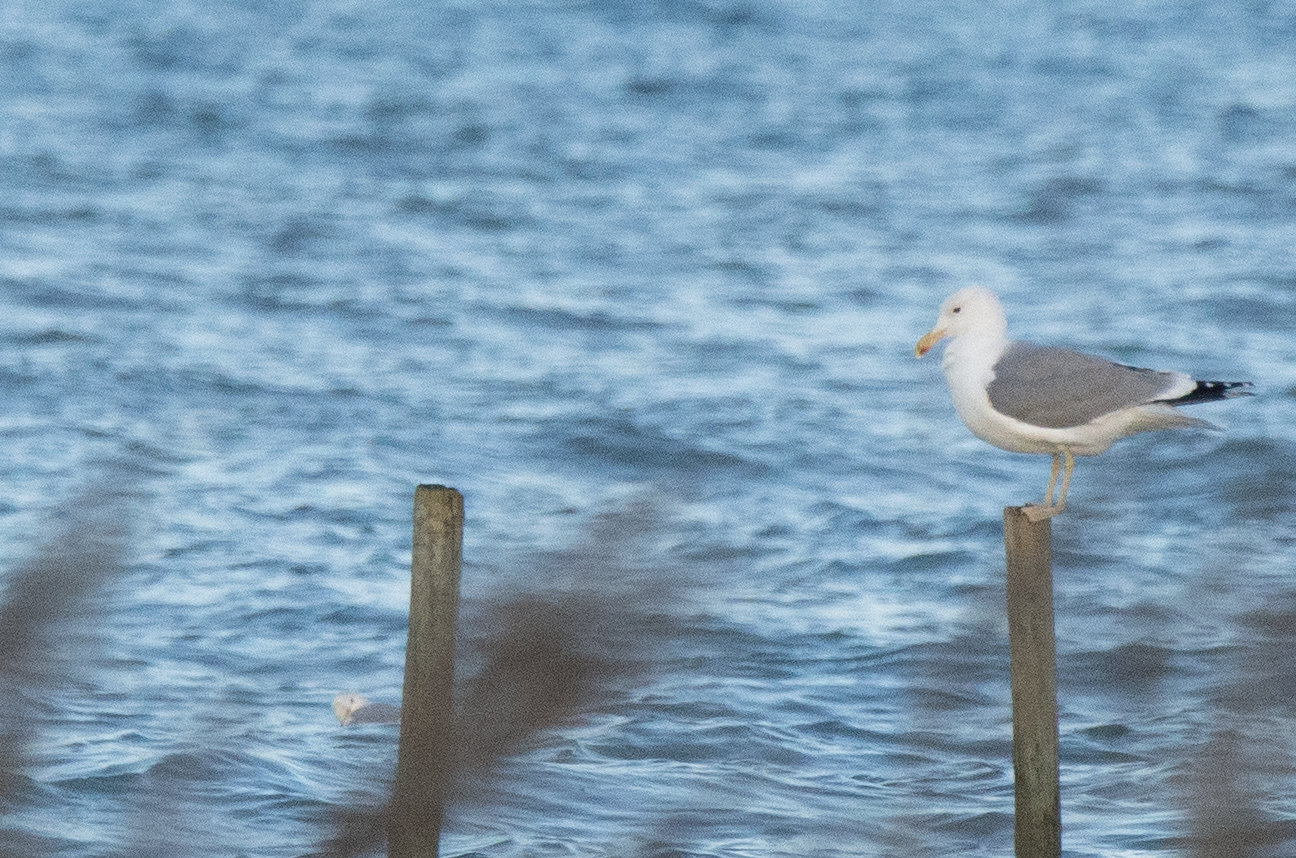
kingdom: Animalia
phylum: Chordata
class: Aves
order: Charadriiformes
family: Laridae
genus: Larus
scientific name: Larus cachinnans
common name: Caspian gull
